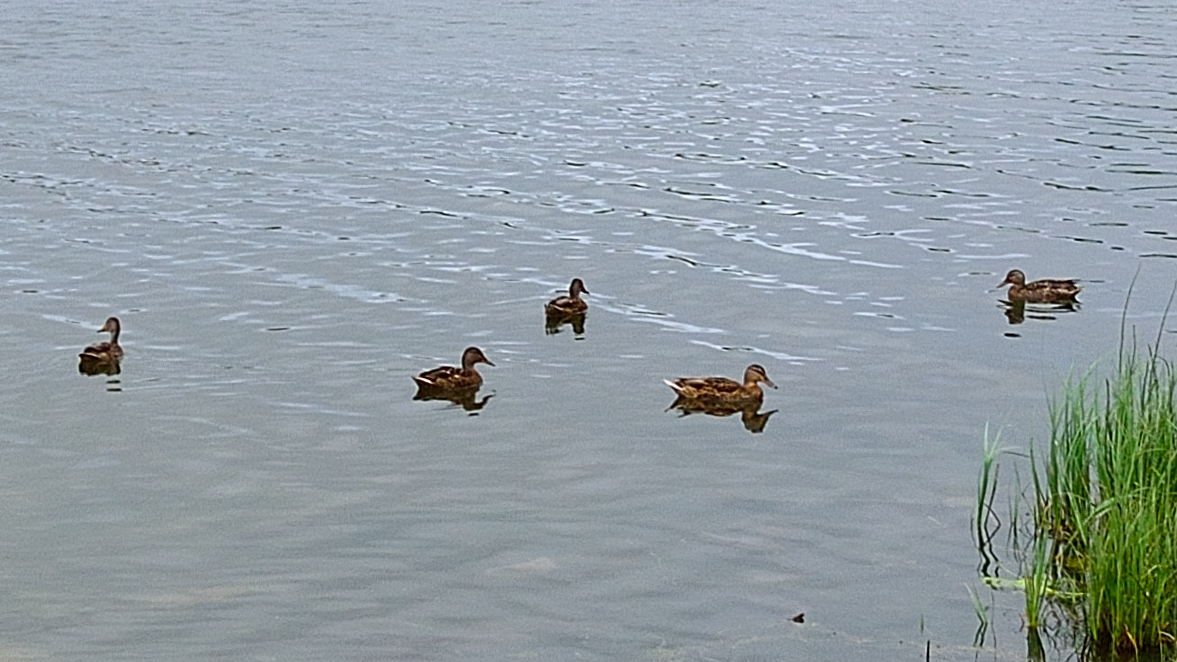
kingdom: Animalia
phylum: Chordata
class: Aves
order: Anseriformes
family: Anatidae
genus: Anas
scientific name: Anas platyrhynchos
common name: Mallard
